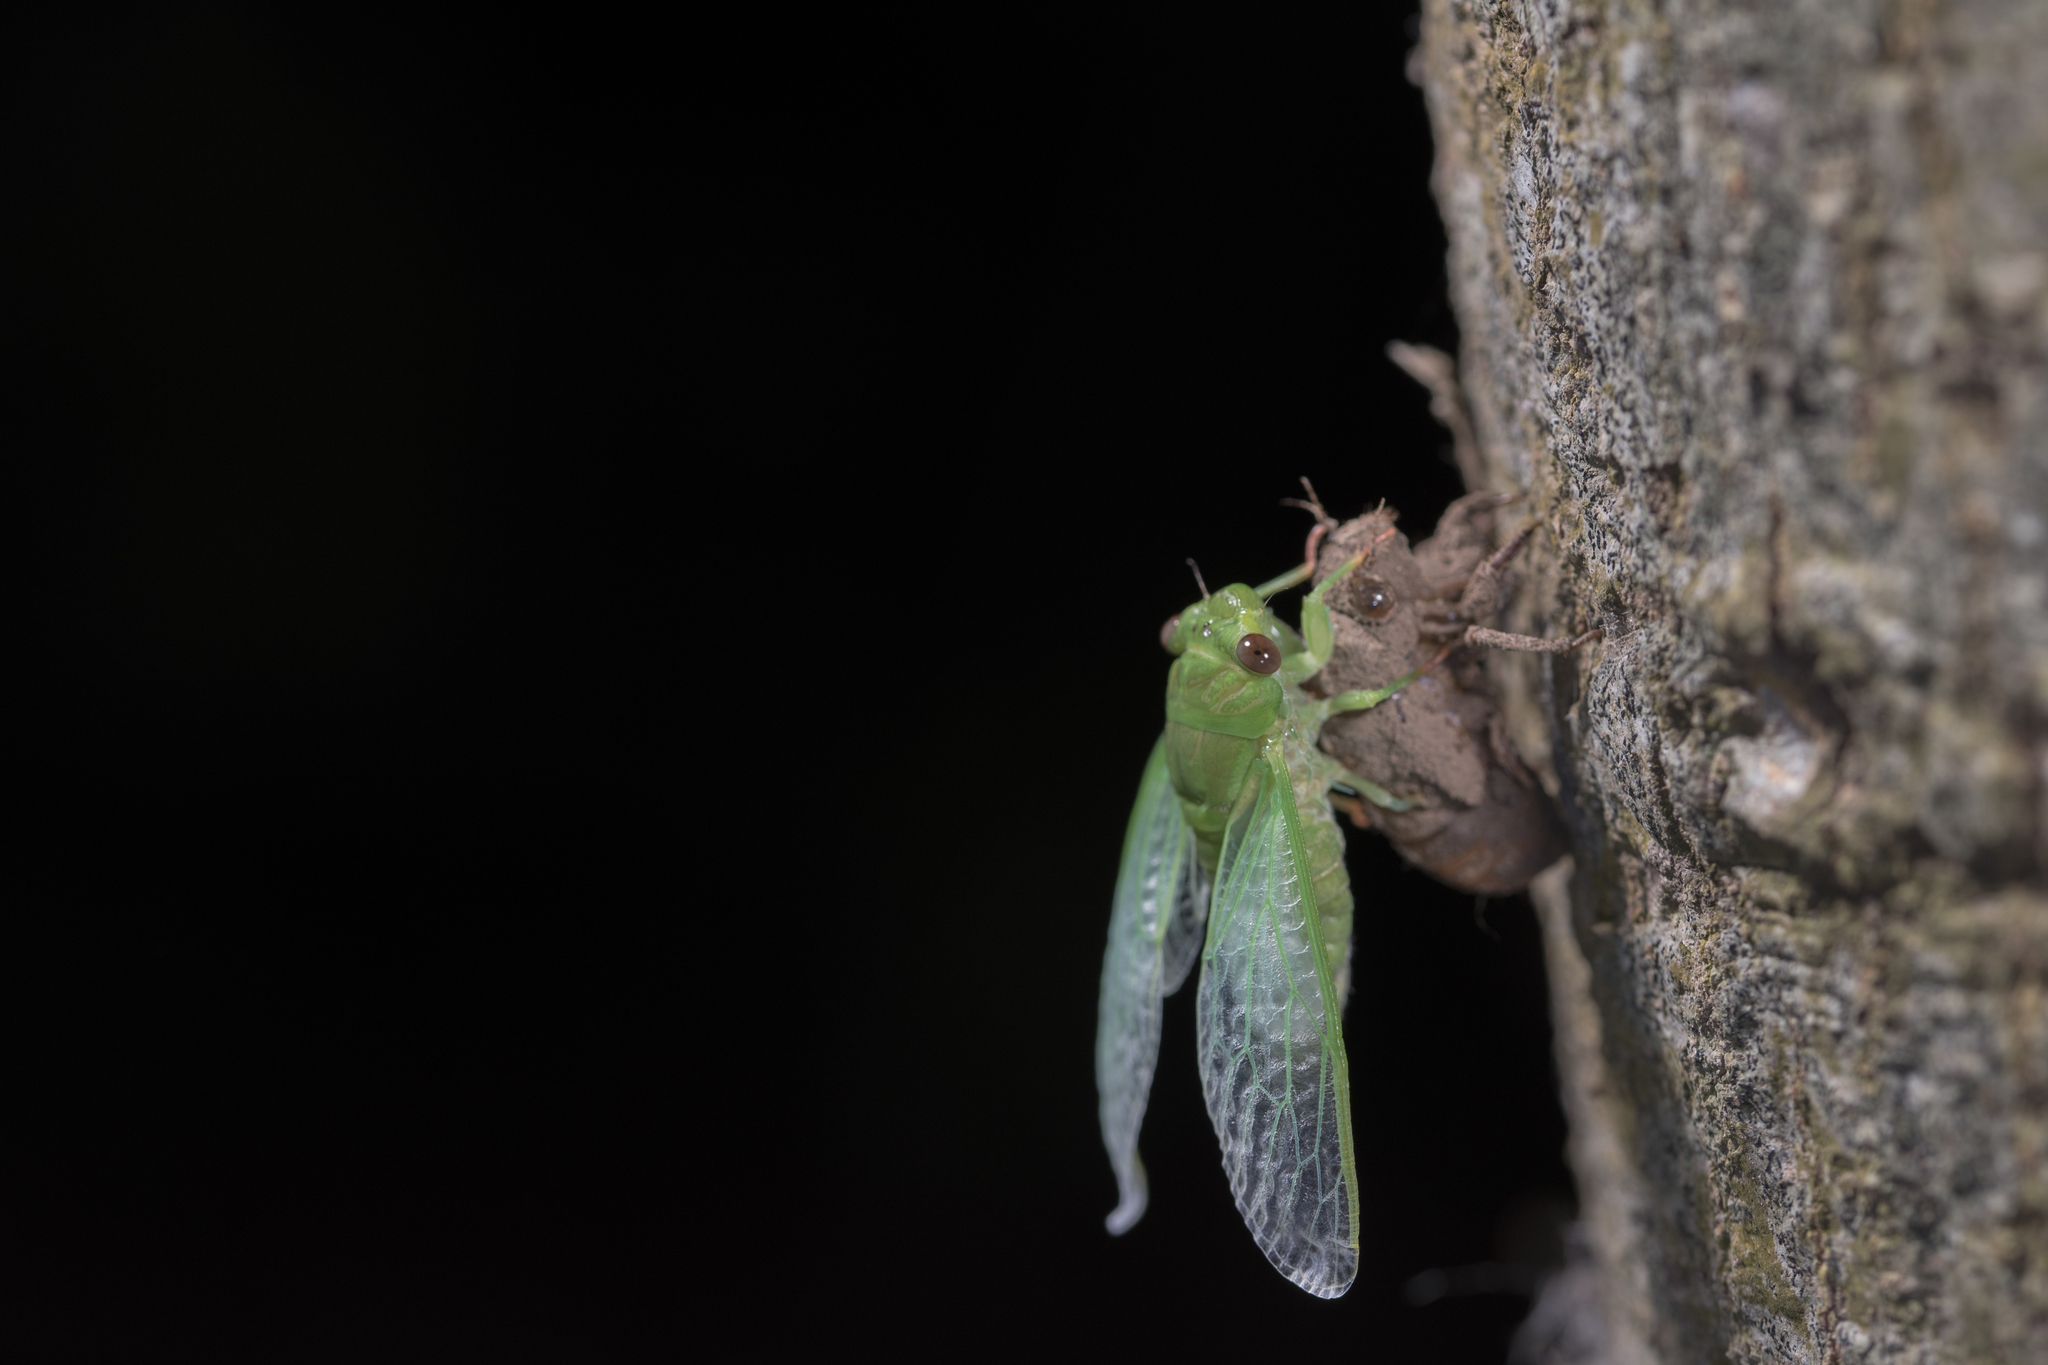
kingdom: Animalia
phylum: Arthropoda
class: Insecta
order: Hemiptera
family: Cicadidae
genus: Chremistica
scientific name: Chremistica ochracea
